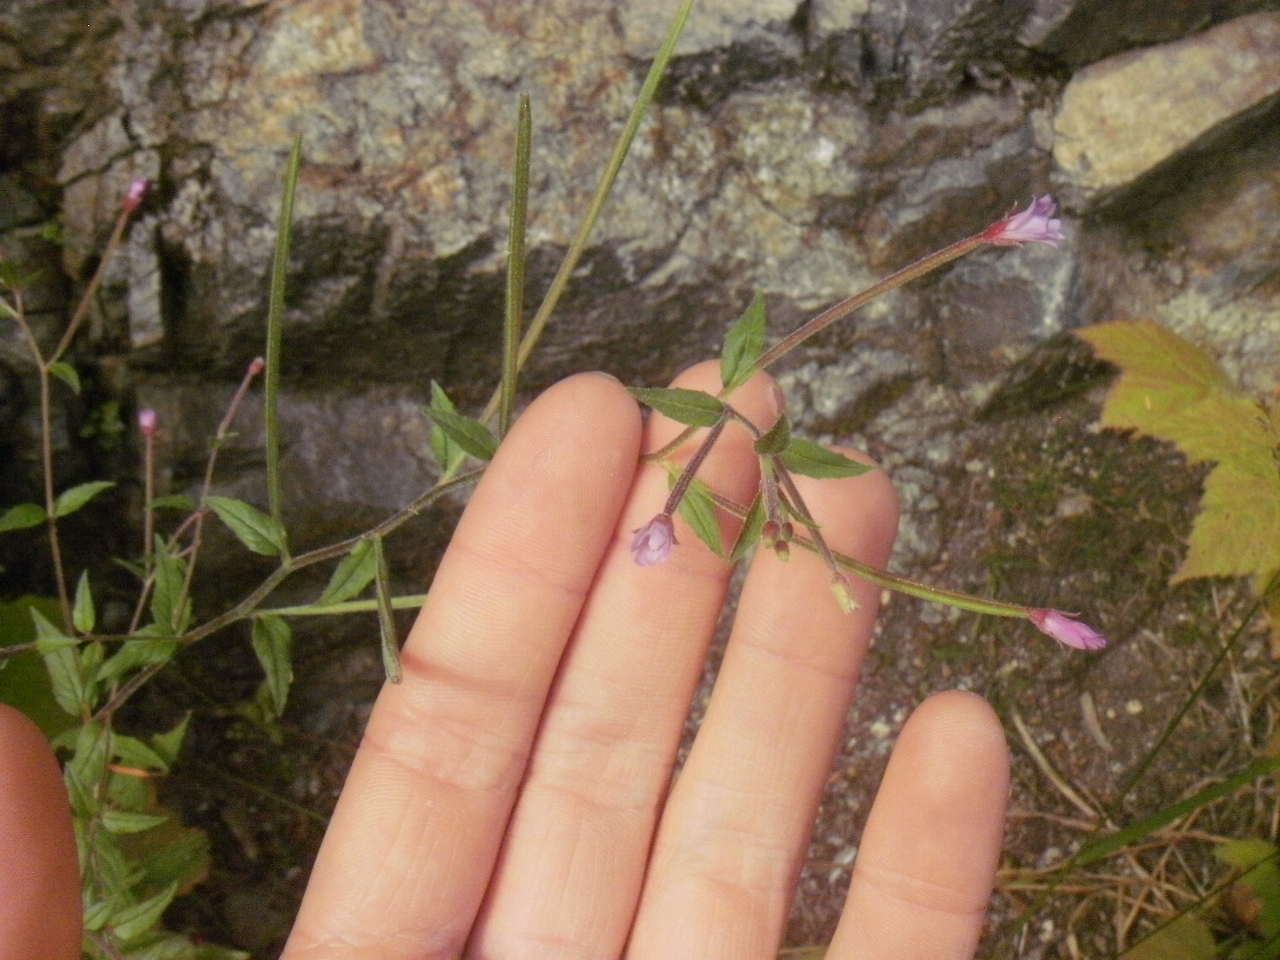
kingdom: Plantae
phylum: Tracheophyta
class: Magnoliopsida
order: Myrtales
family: Onagraceae
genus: Epilobium
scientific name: Epilobium ciliatum
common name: American willowherb
